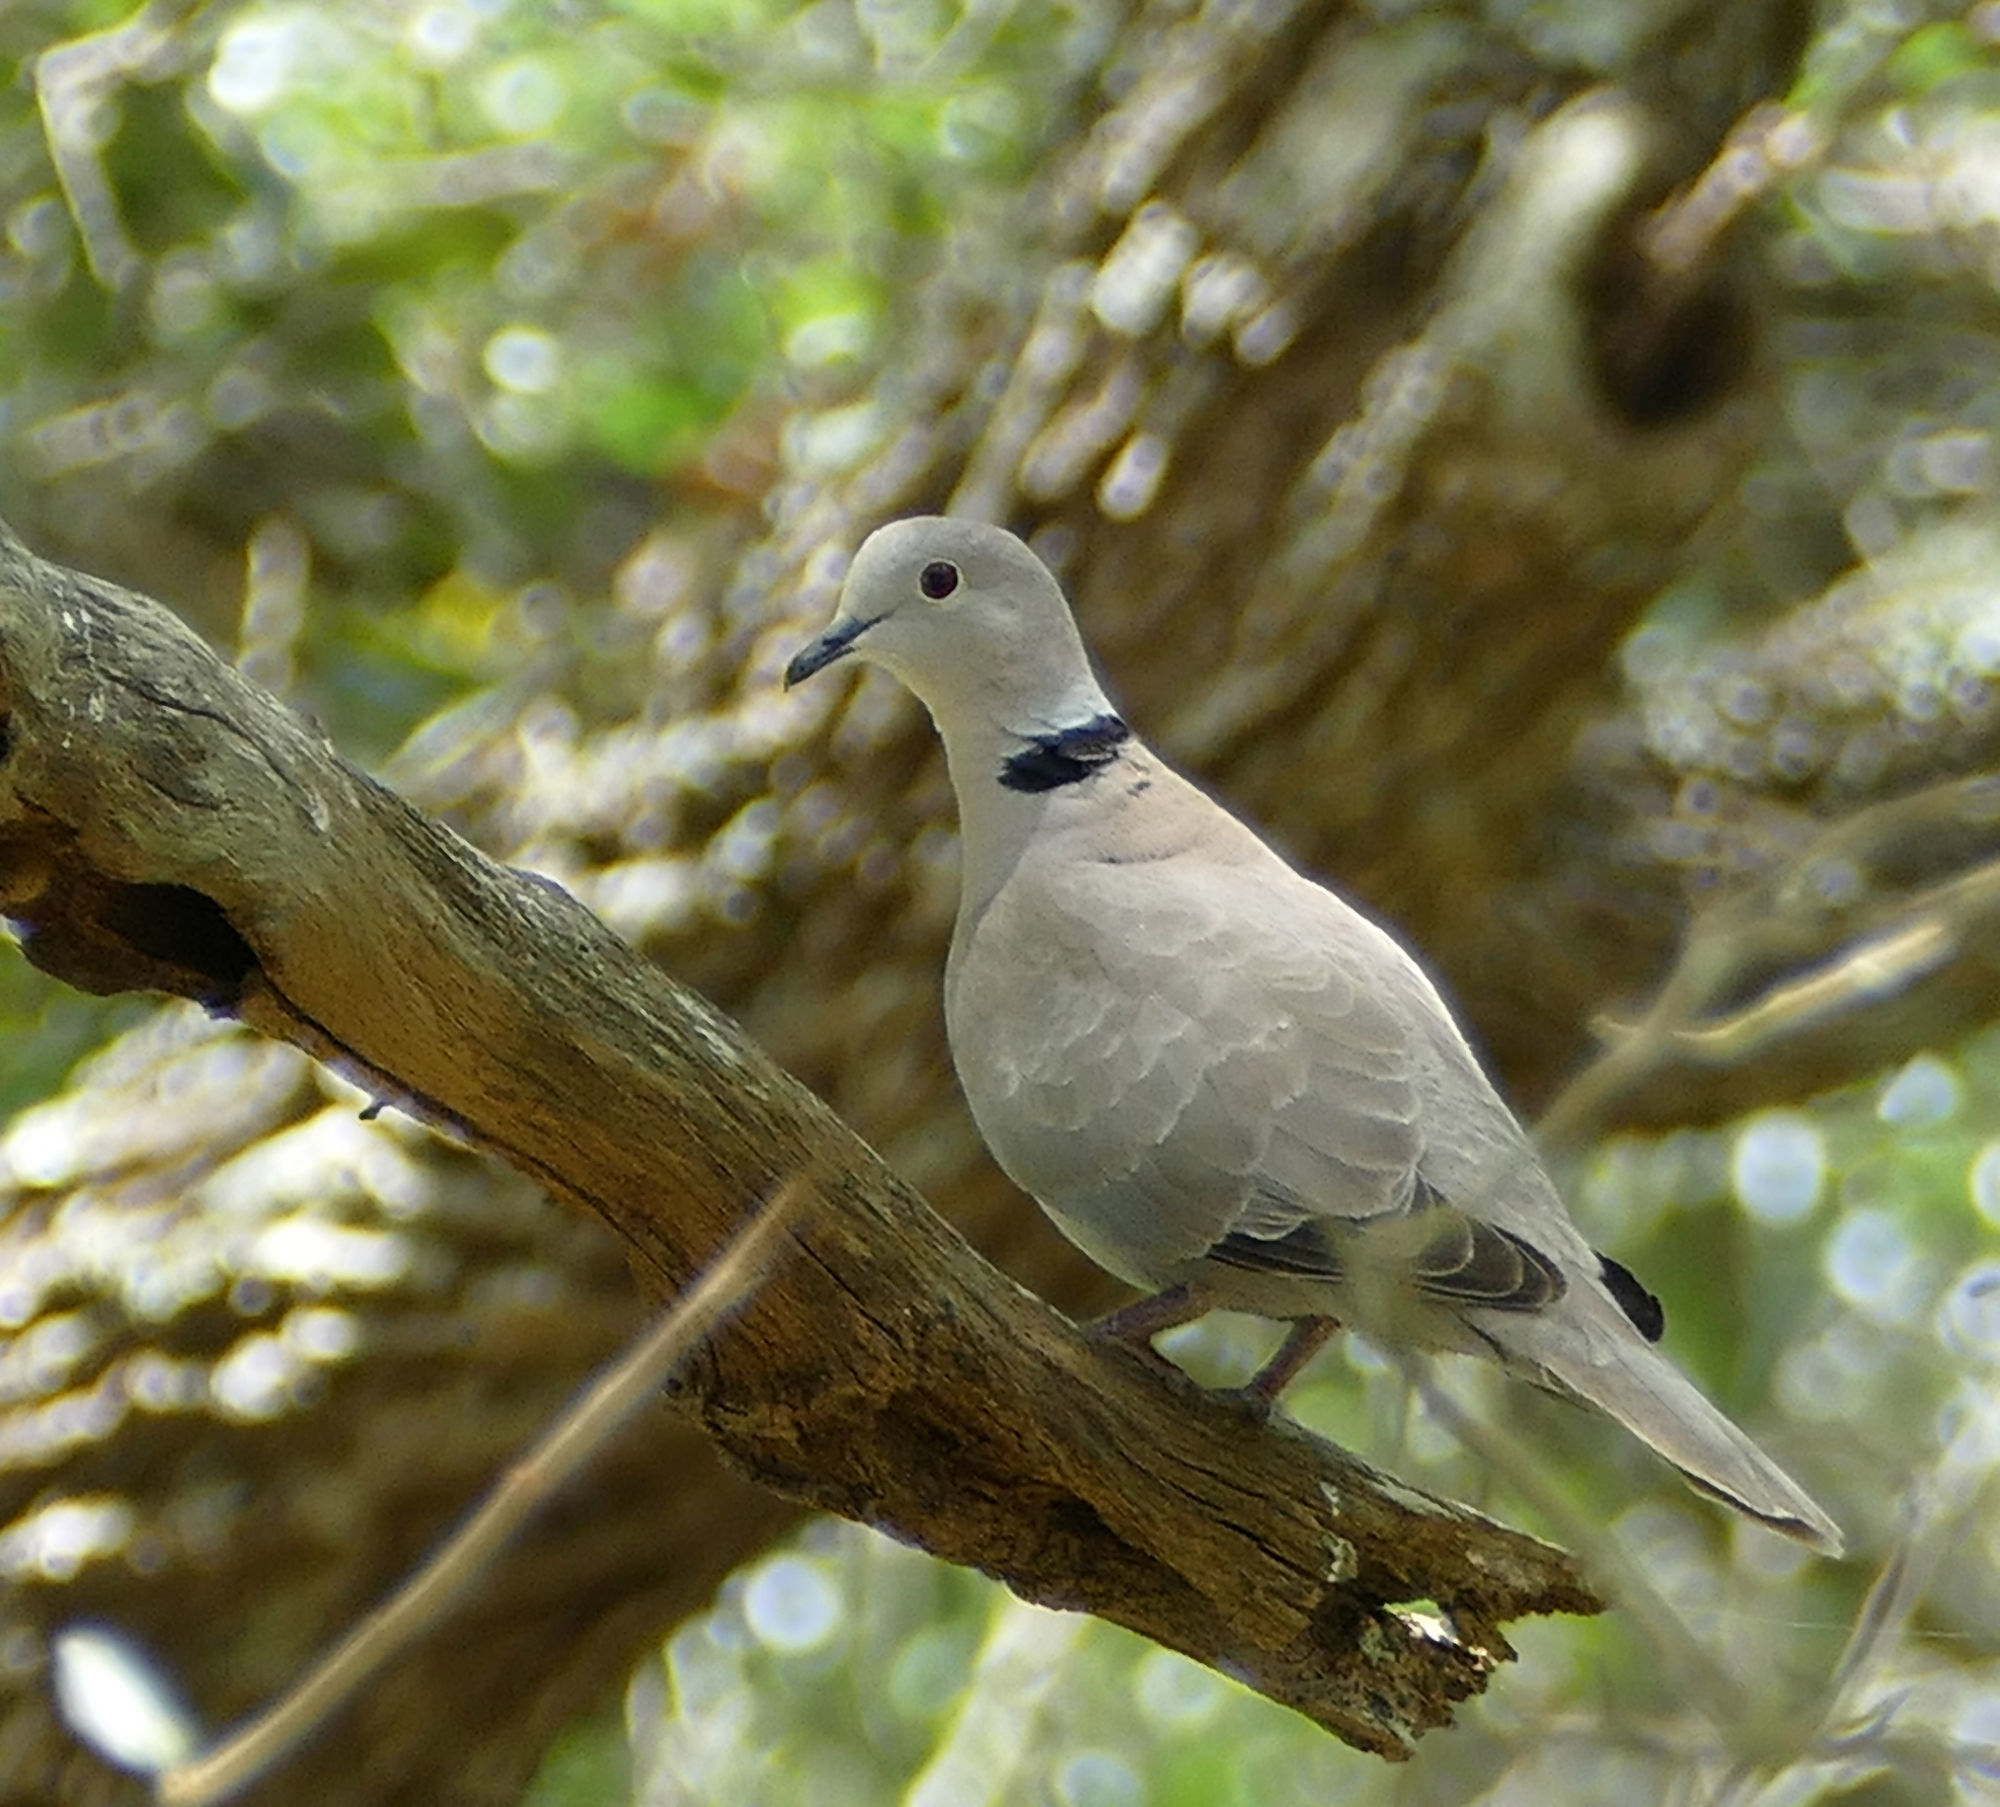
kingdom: Animalia
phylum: Chordata
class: Aves
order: Columbiformes
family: Columbidae
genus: Streptopelia
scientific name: Streptopelia decaocto
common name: Eurasian collared dove
